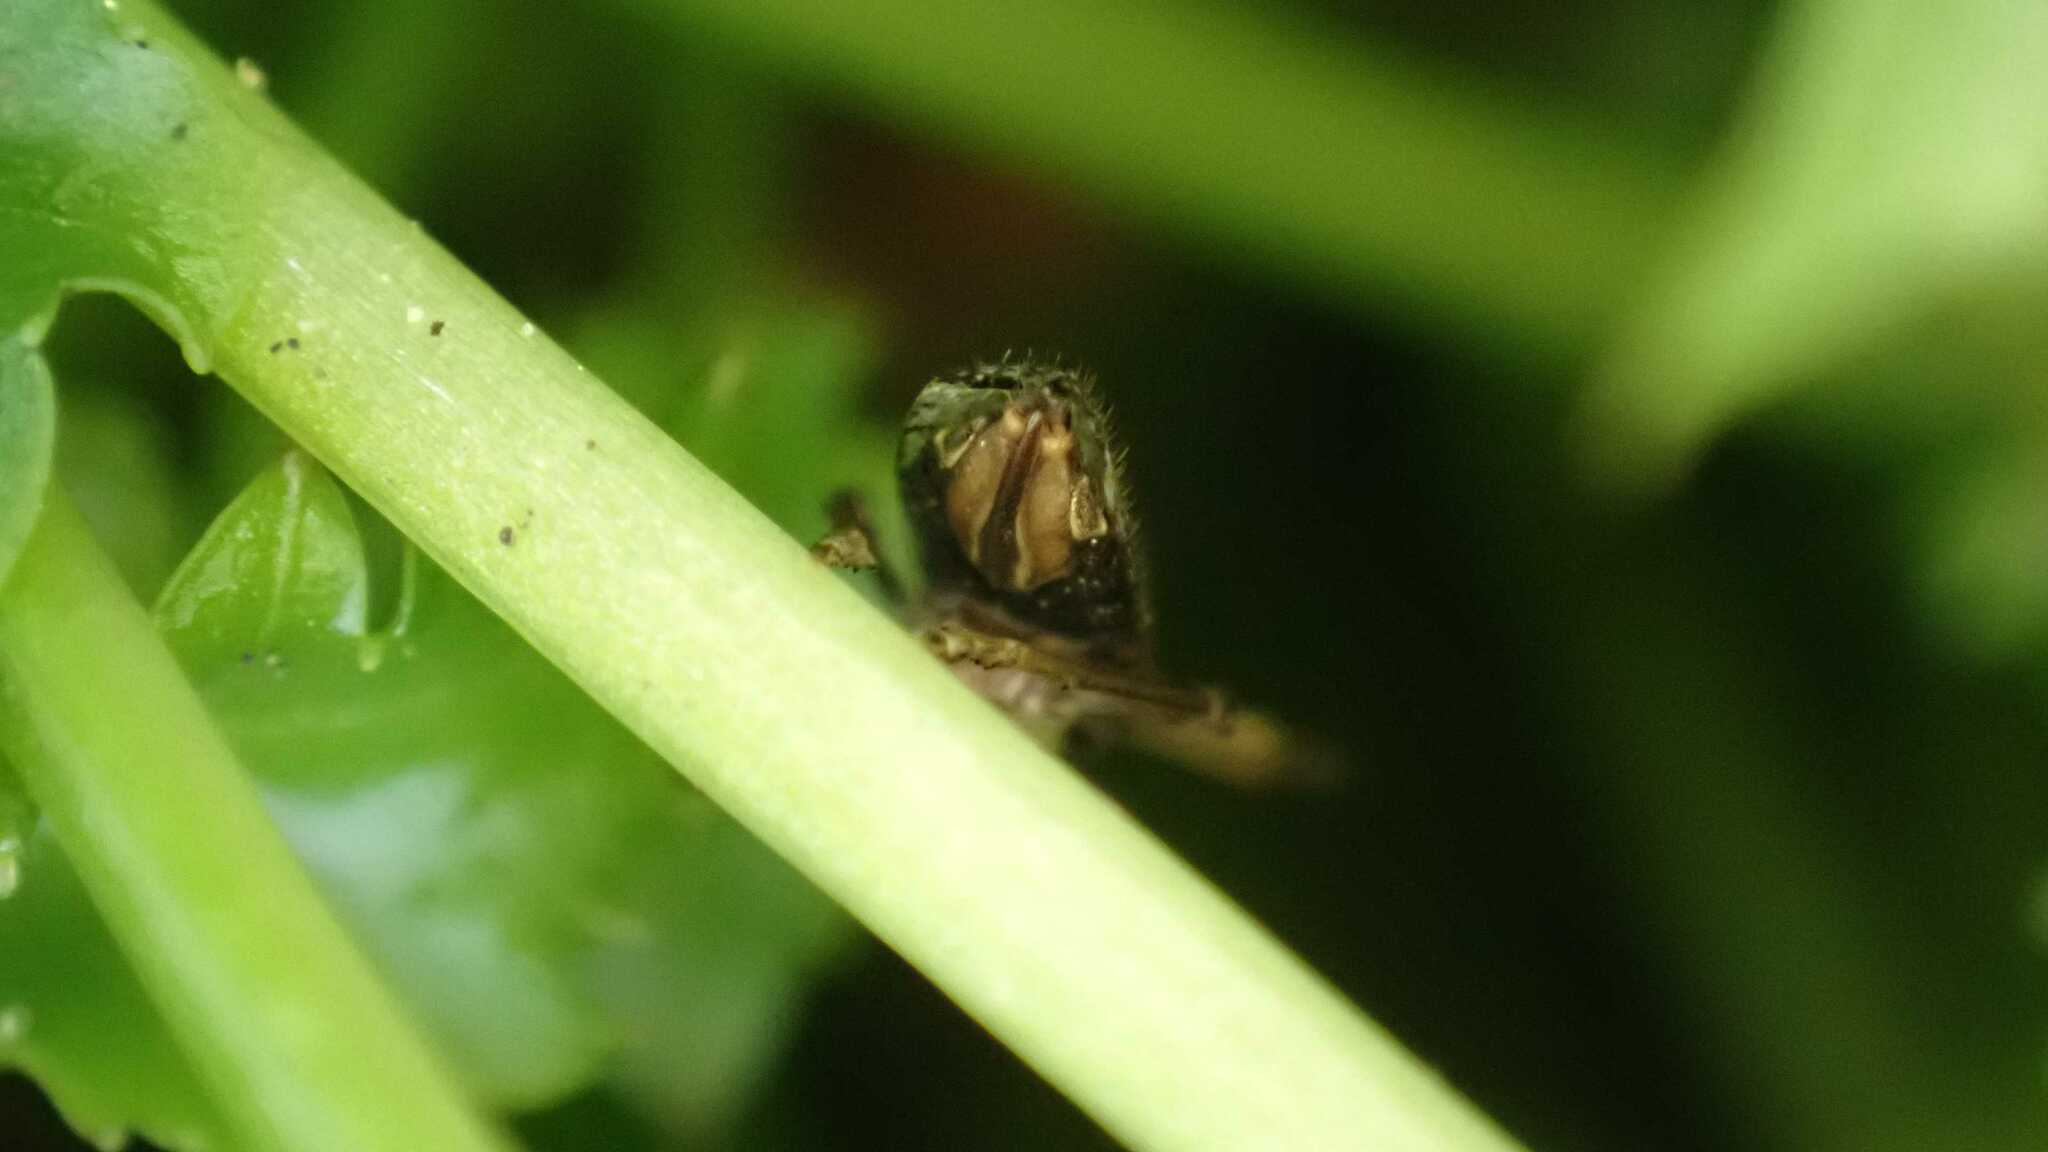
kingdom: Animalia
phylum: Arthropoda
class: Insecta
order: Hemiptera
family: Delphacidae
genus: Asiraca
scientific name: Asiraca clavicornis
